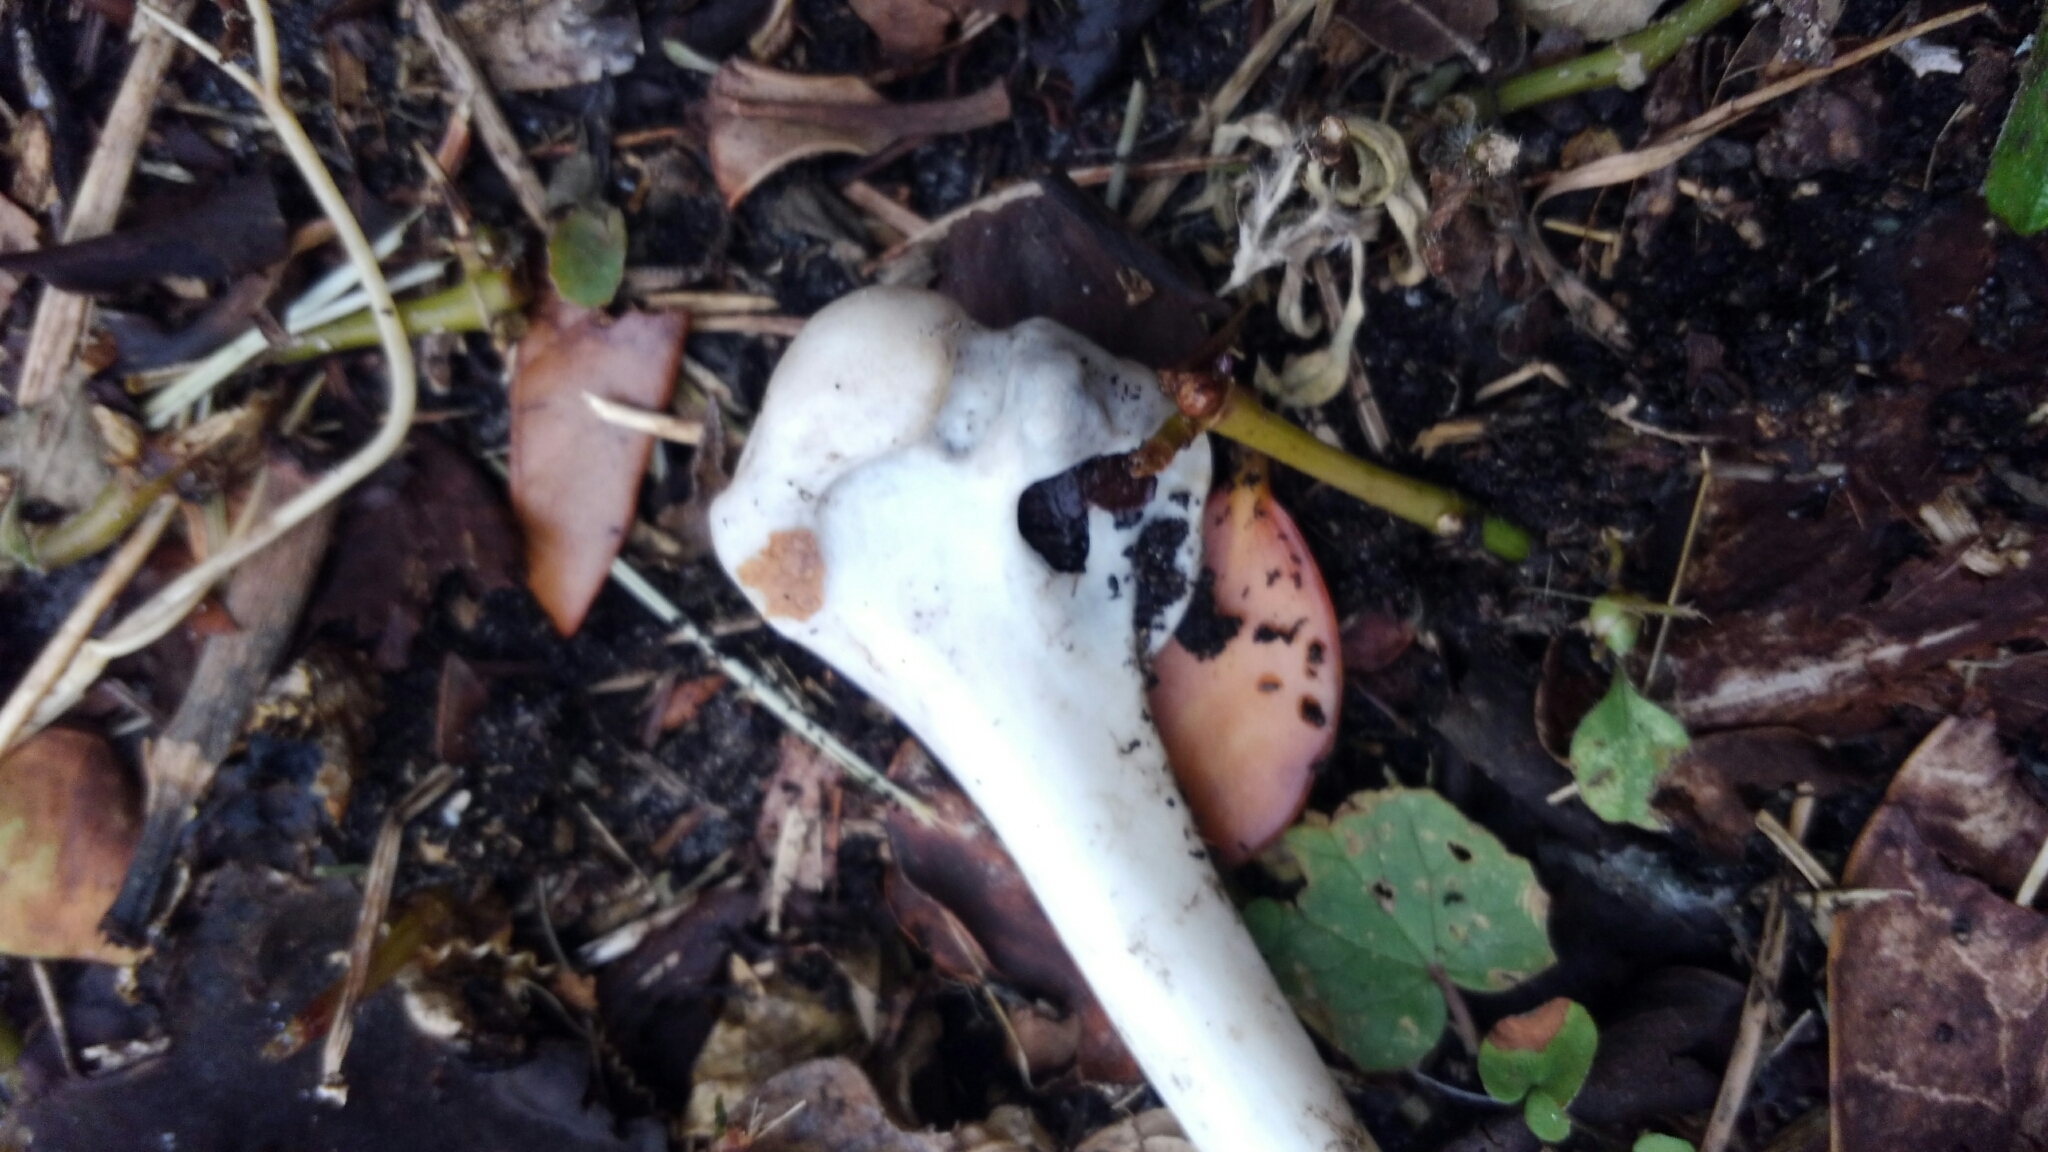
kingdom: Animalia
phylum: Chordata
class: Aves
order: Anseriformes
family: Anatidae
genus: Cairina
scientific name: Cairina moschata
